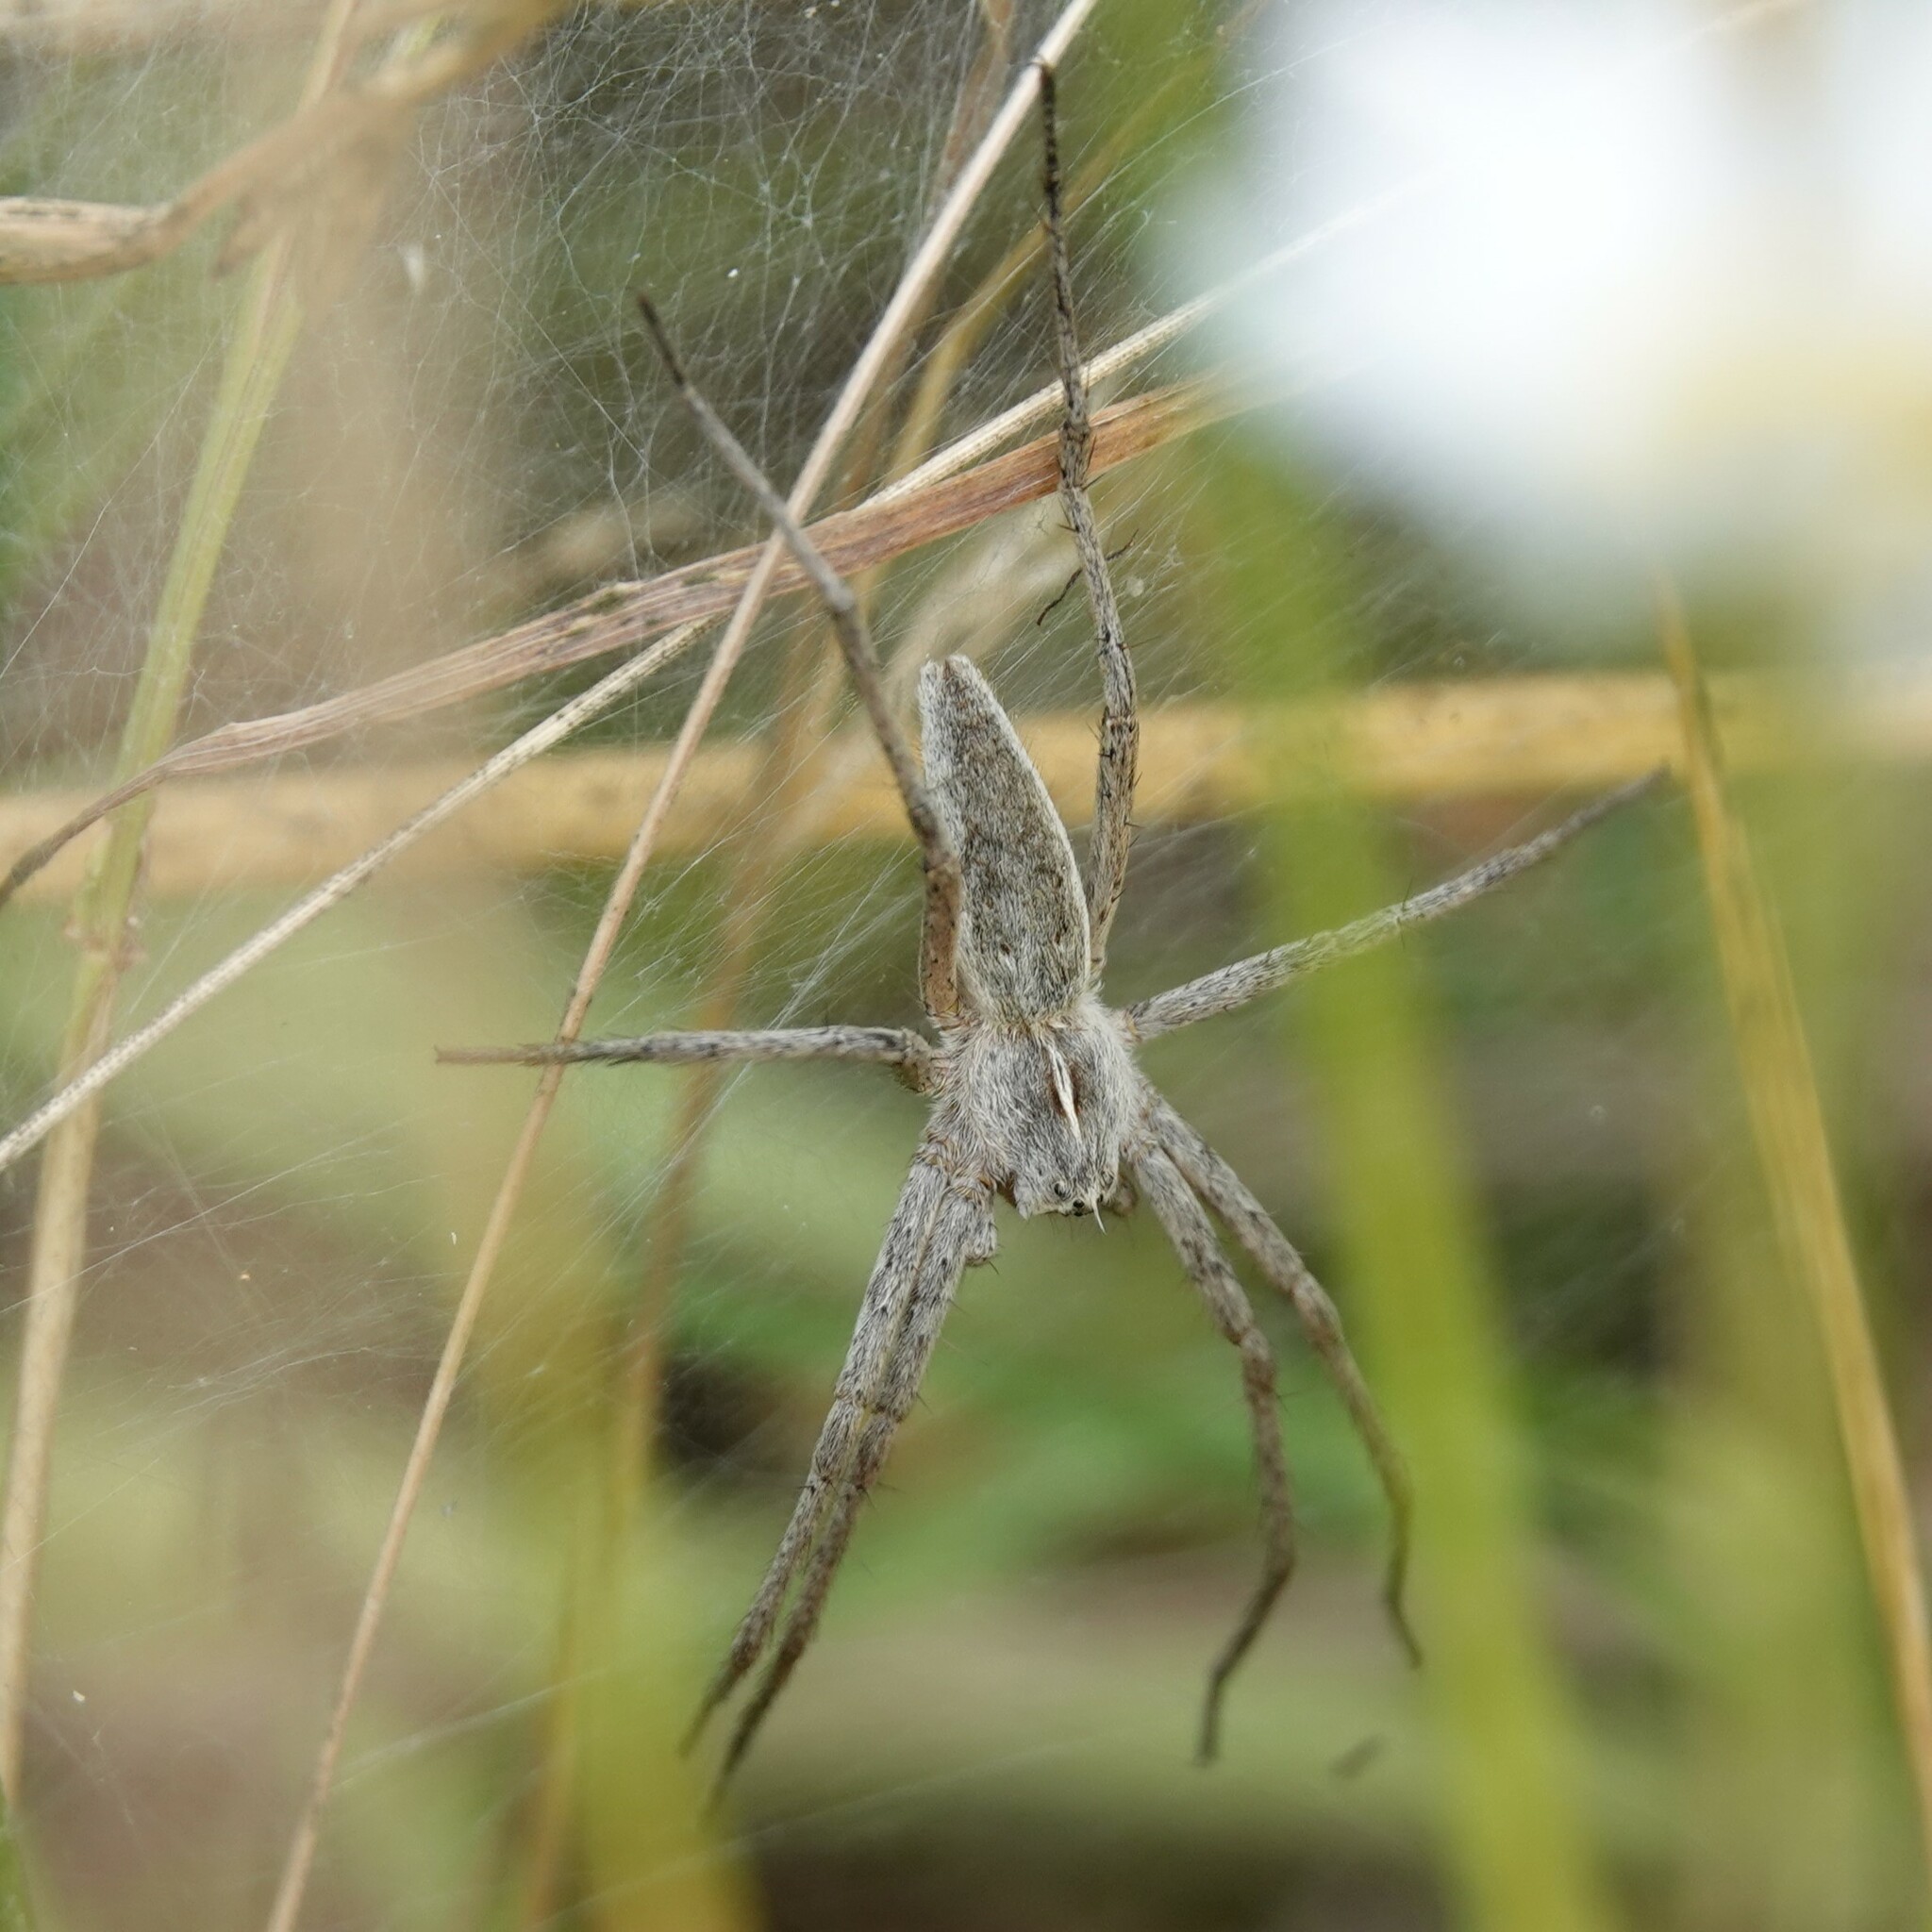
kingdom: Animalia
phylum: Arthropoda
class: Arachnida
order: Araneae
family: Pisauridae
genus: Pisaura
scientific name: Pisaura mirabilis
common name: Tent spider
